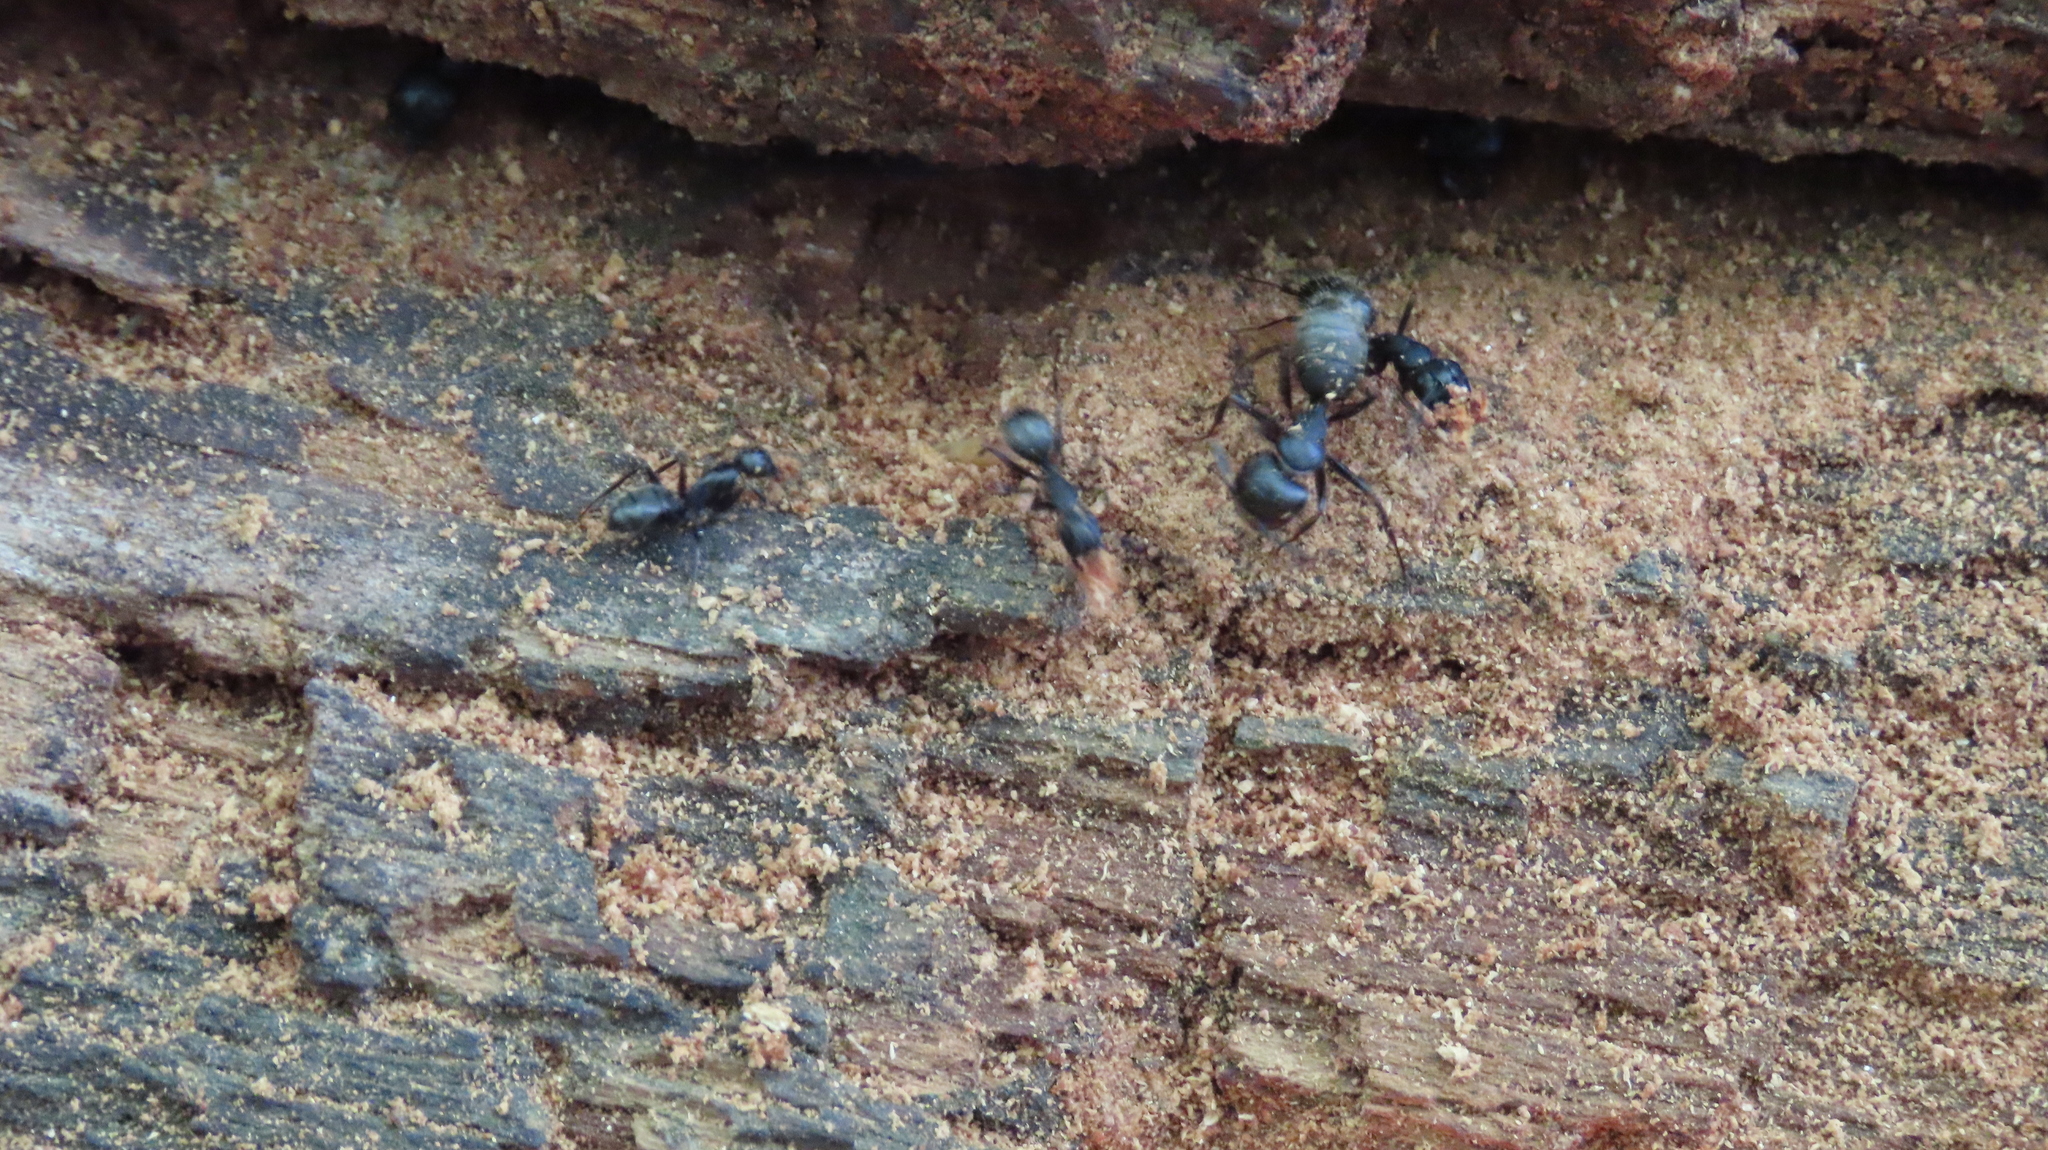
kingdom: Animalia
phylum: Arthropoda
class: Insecta
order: Hymenoptera
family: Formicidae
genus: Camponotus
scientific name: Camponotus pennsylvanicus
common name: Black carpenter ant
